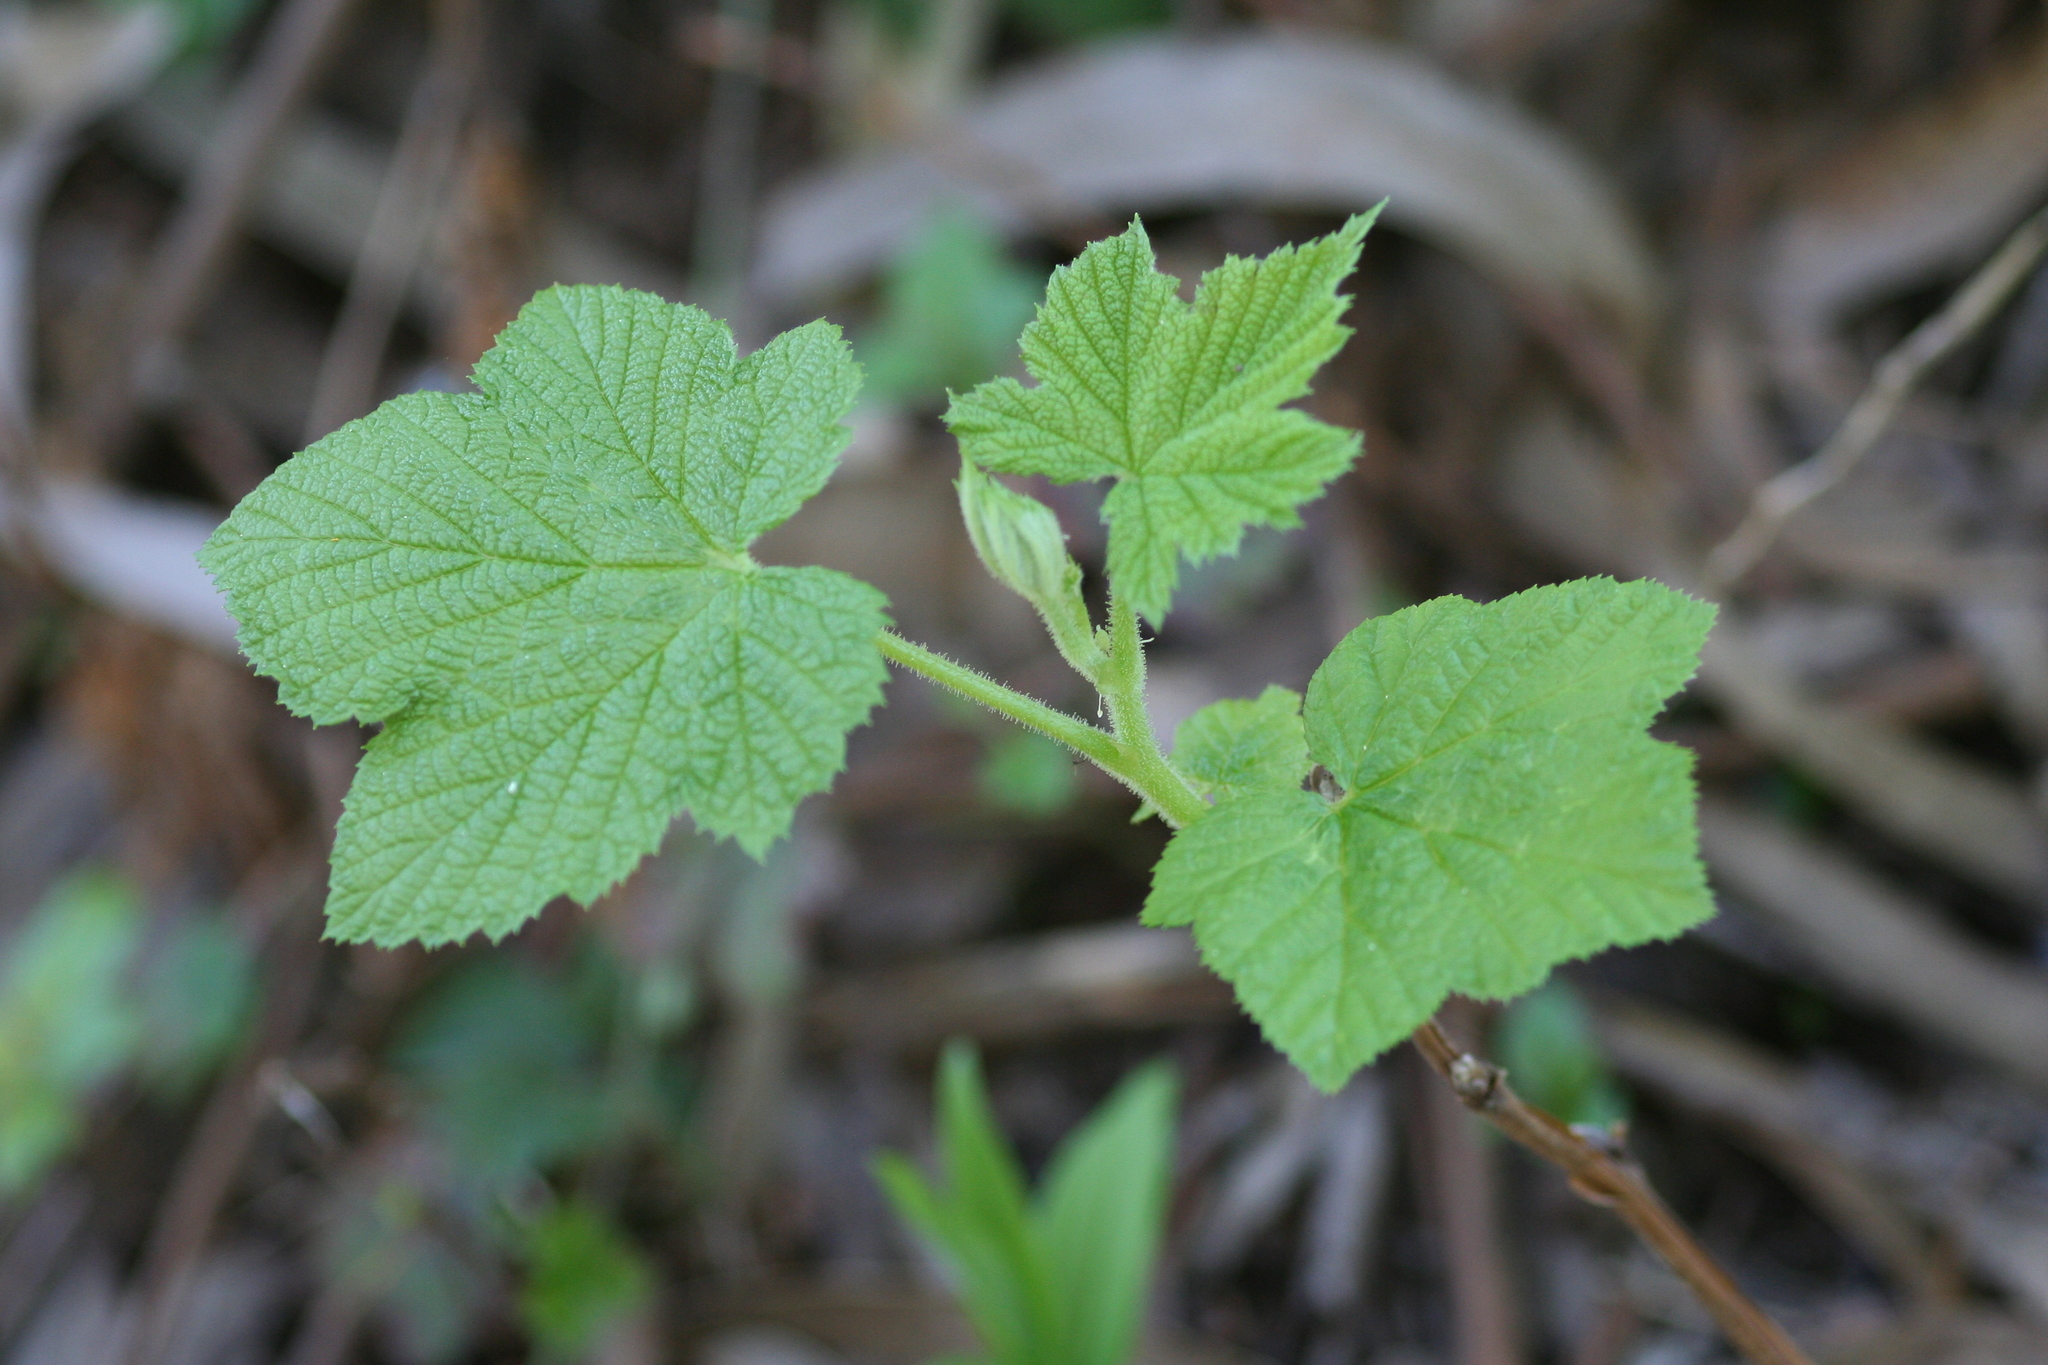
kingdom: Plantae
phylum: Tracheophyta
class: Magnoliopsida
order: Rosales
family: Rosaceae
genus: Rubus
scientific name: Rubus parviflorus
